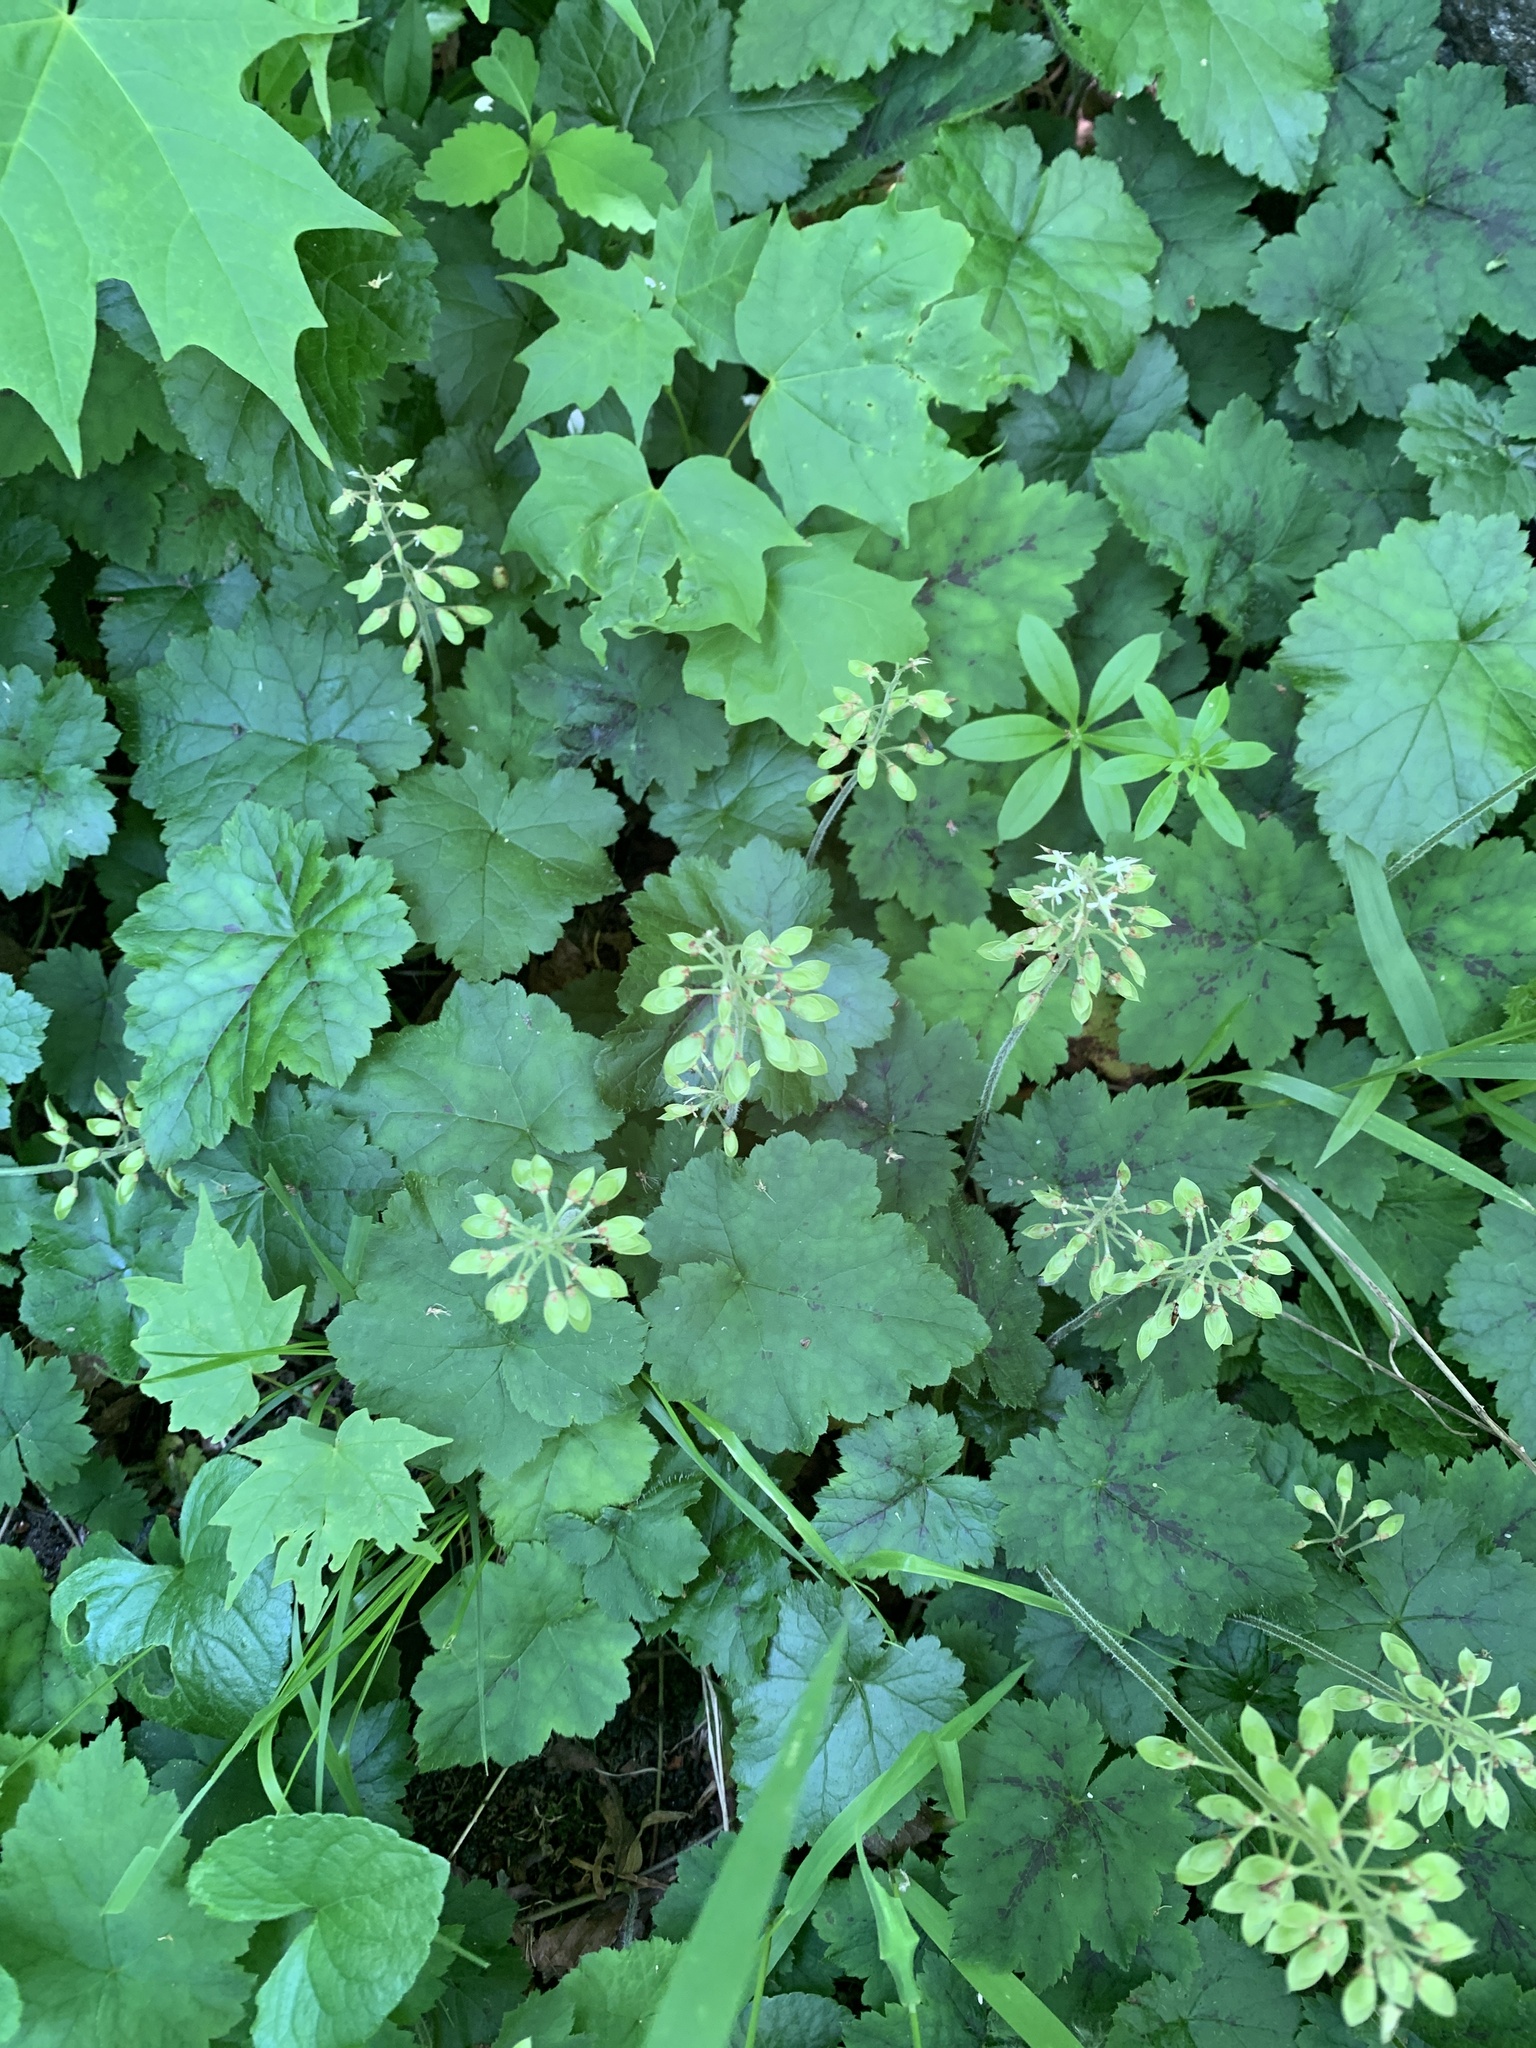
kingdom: Plantae
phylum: Tracheophyta
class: Magnoliopsida
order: Saxifragales
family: Saxifragaceae
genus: Tiarella
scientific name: Tiarella stolonifera
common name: Stoloniferous foamflower
